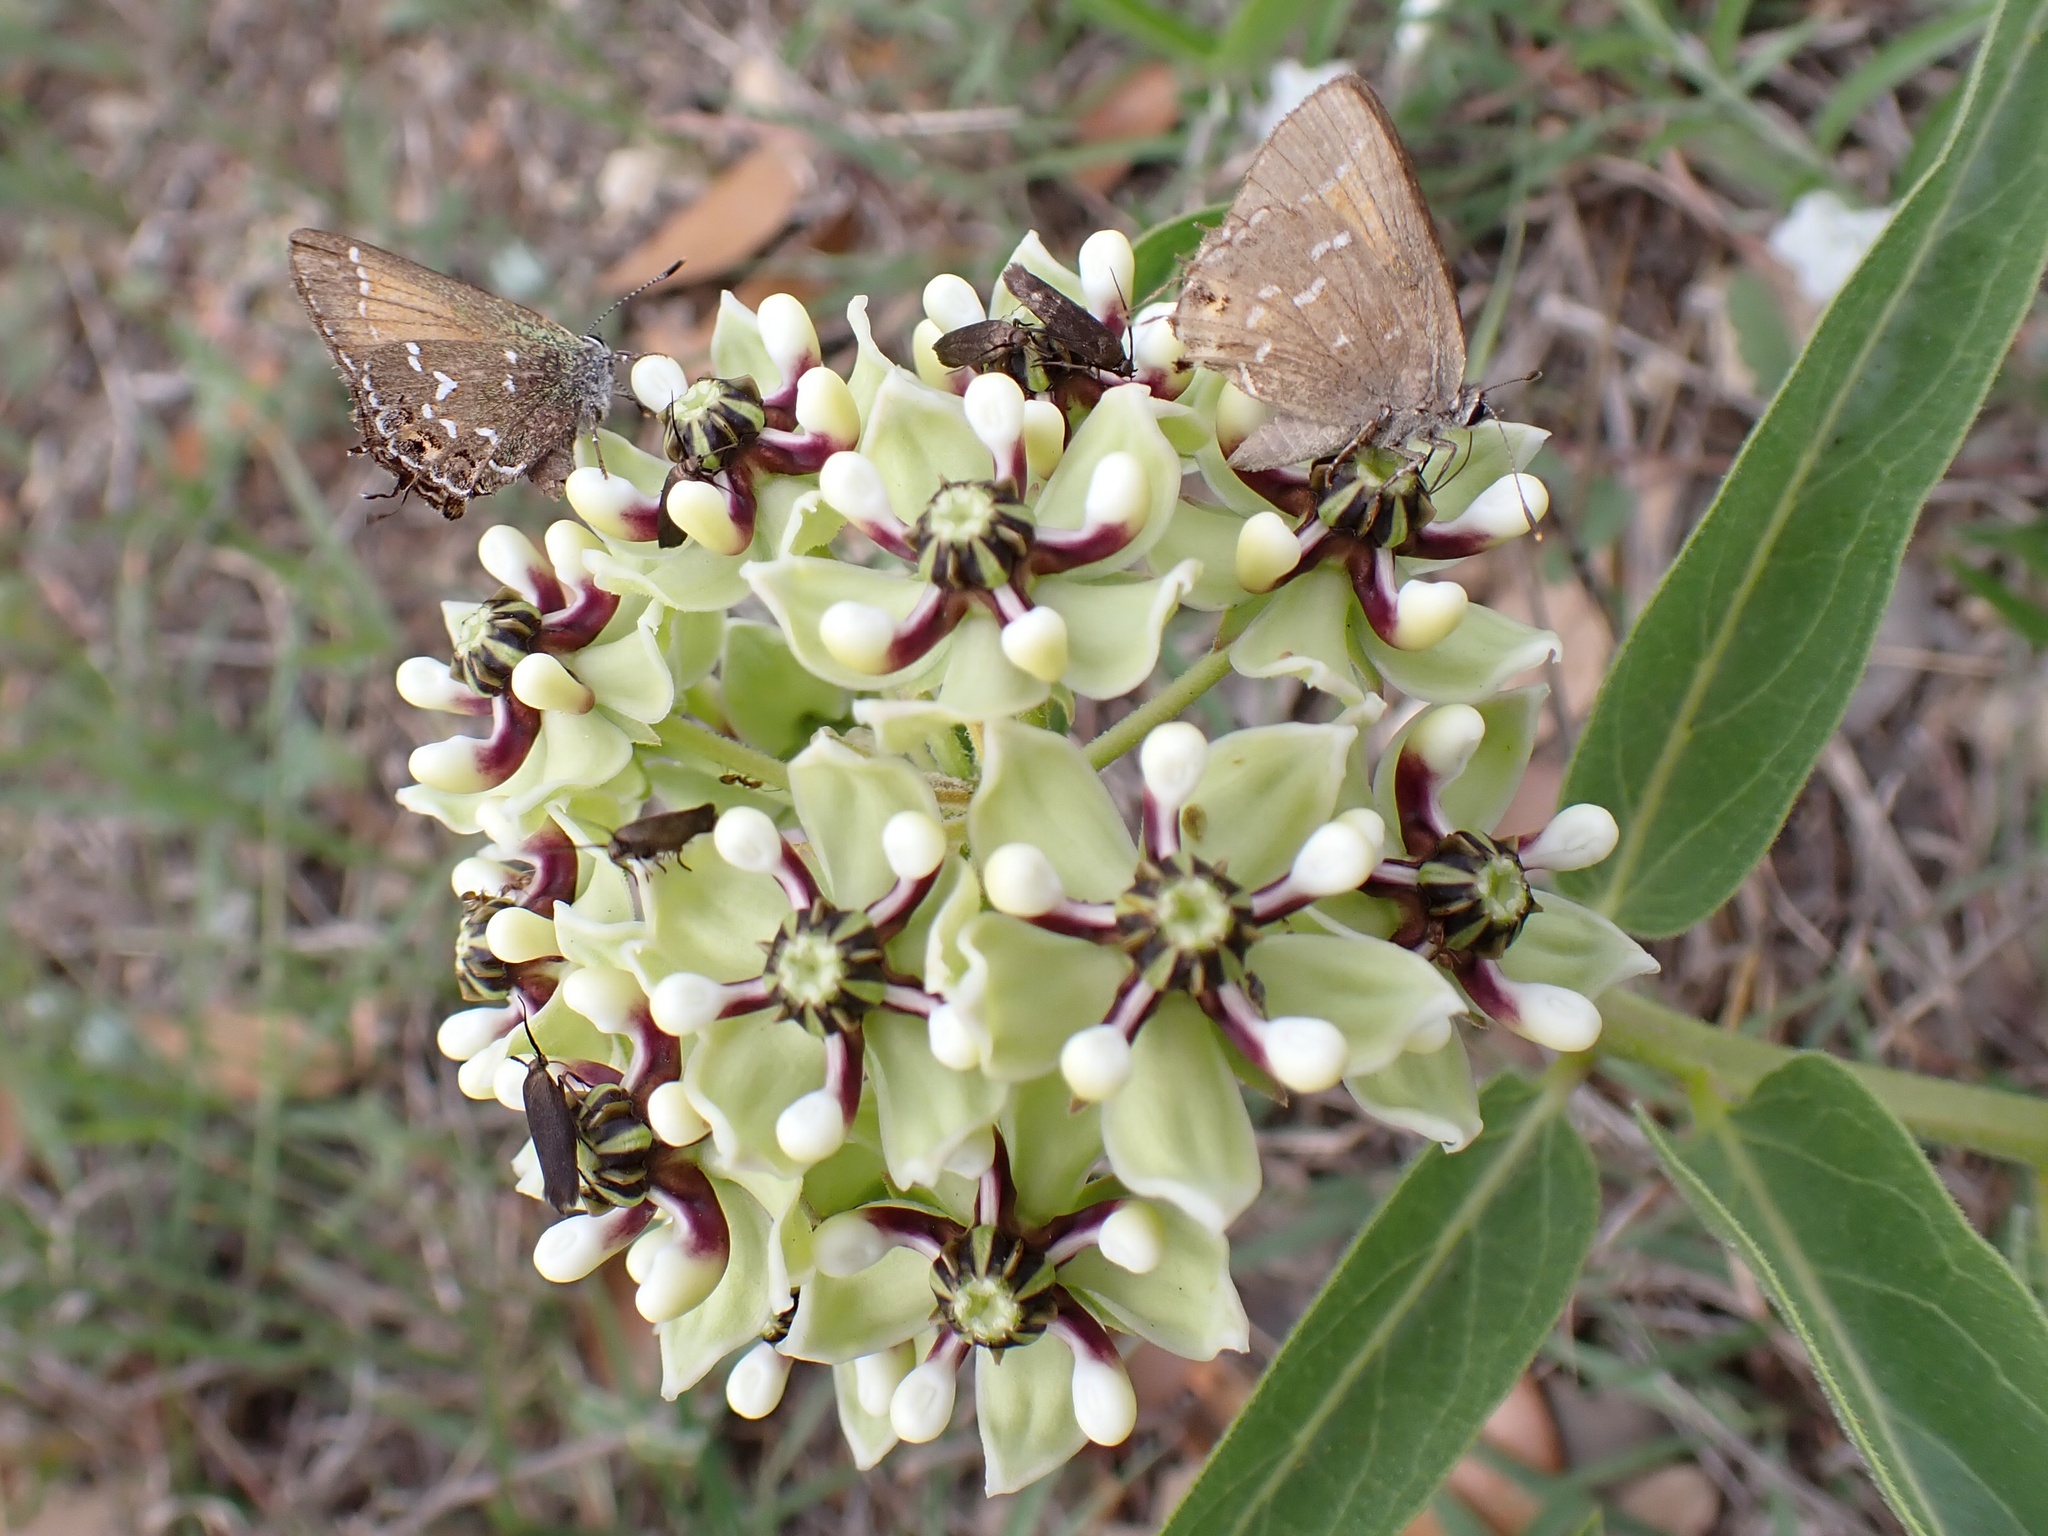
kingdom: Animalia
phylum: Arthropoda
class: Insecta
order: Lepidoptera
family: Lycaenidae
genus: Mitoura
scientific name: Mitoura gryneus
